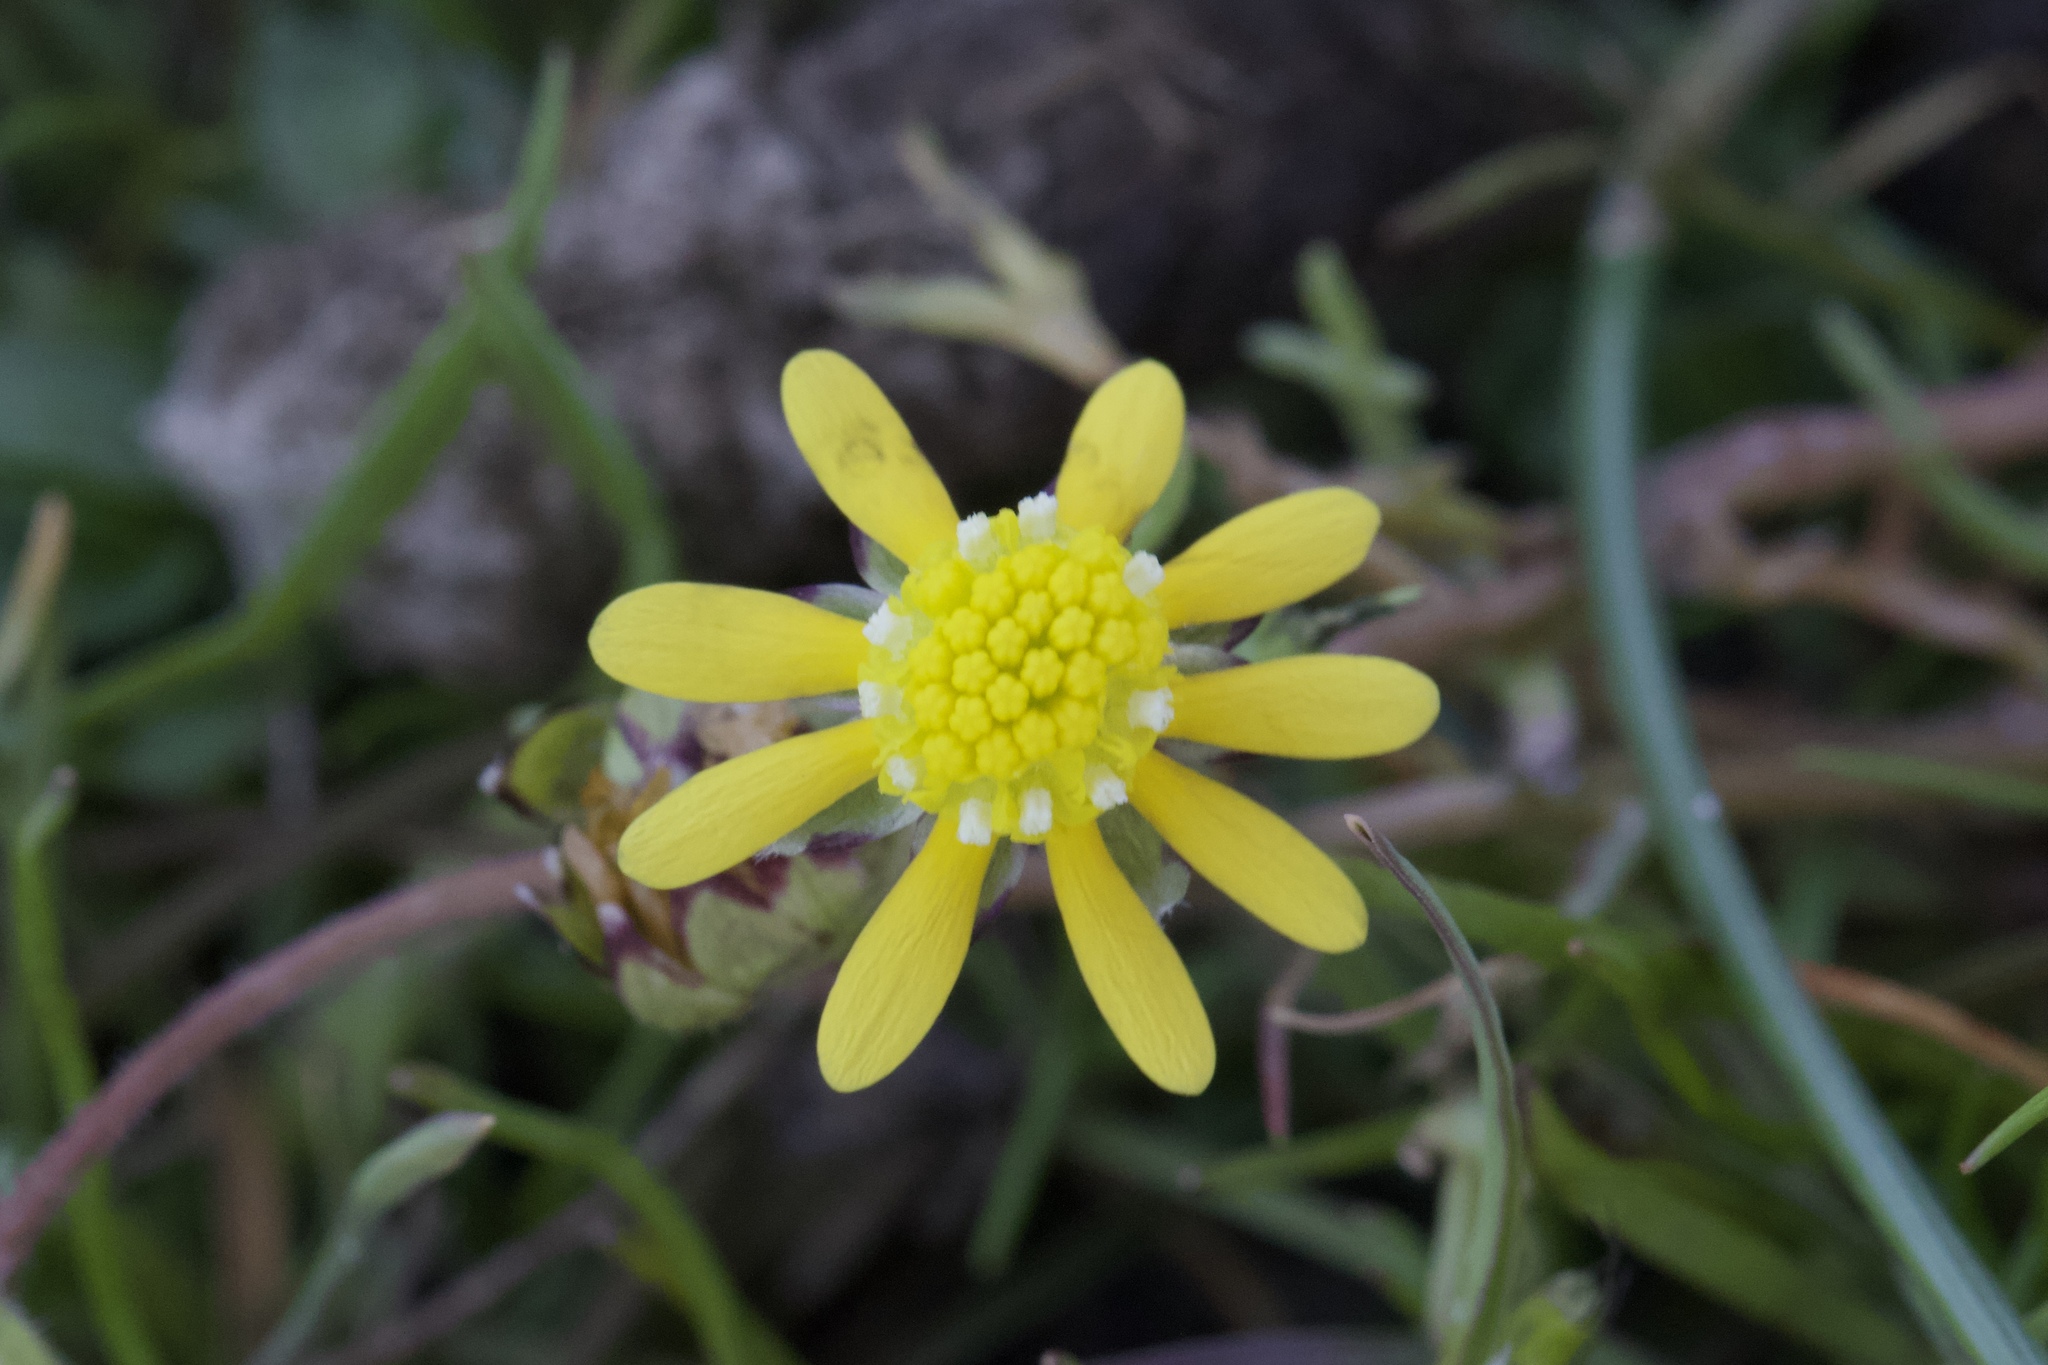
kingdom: Plantae
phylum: Tracheophyta
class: Magnoliopsida
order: Asterales
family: Asteraceae
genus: Blennosperma
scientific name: Blennosperma nanum
